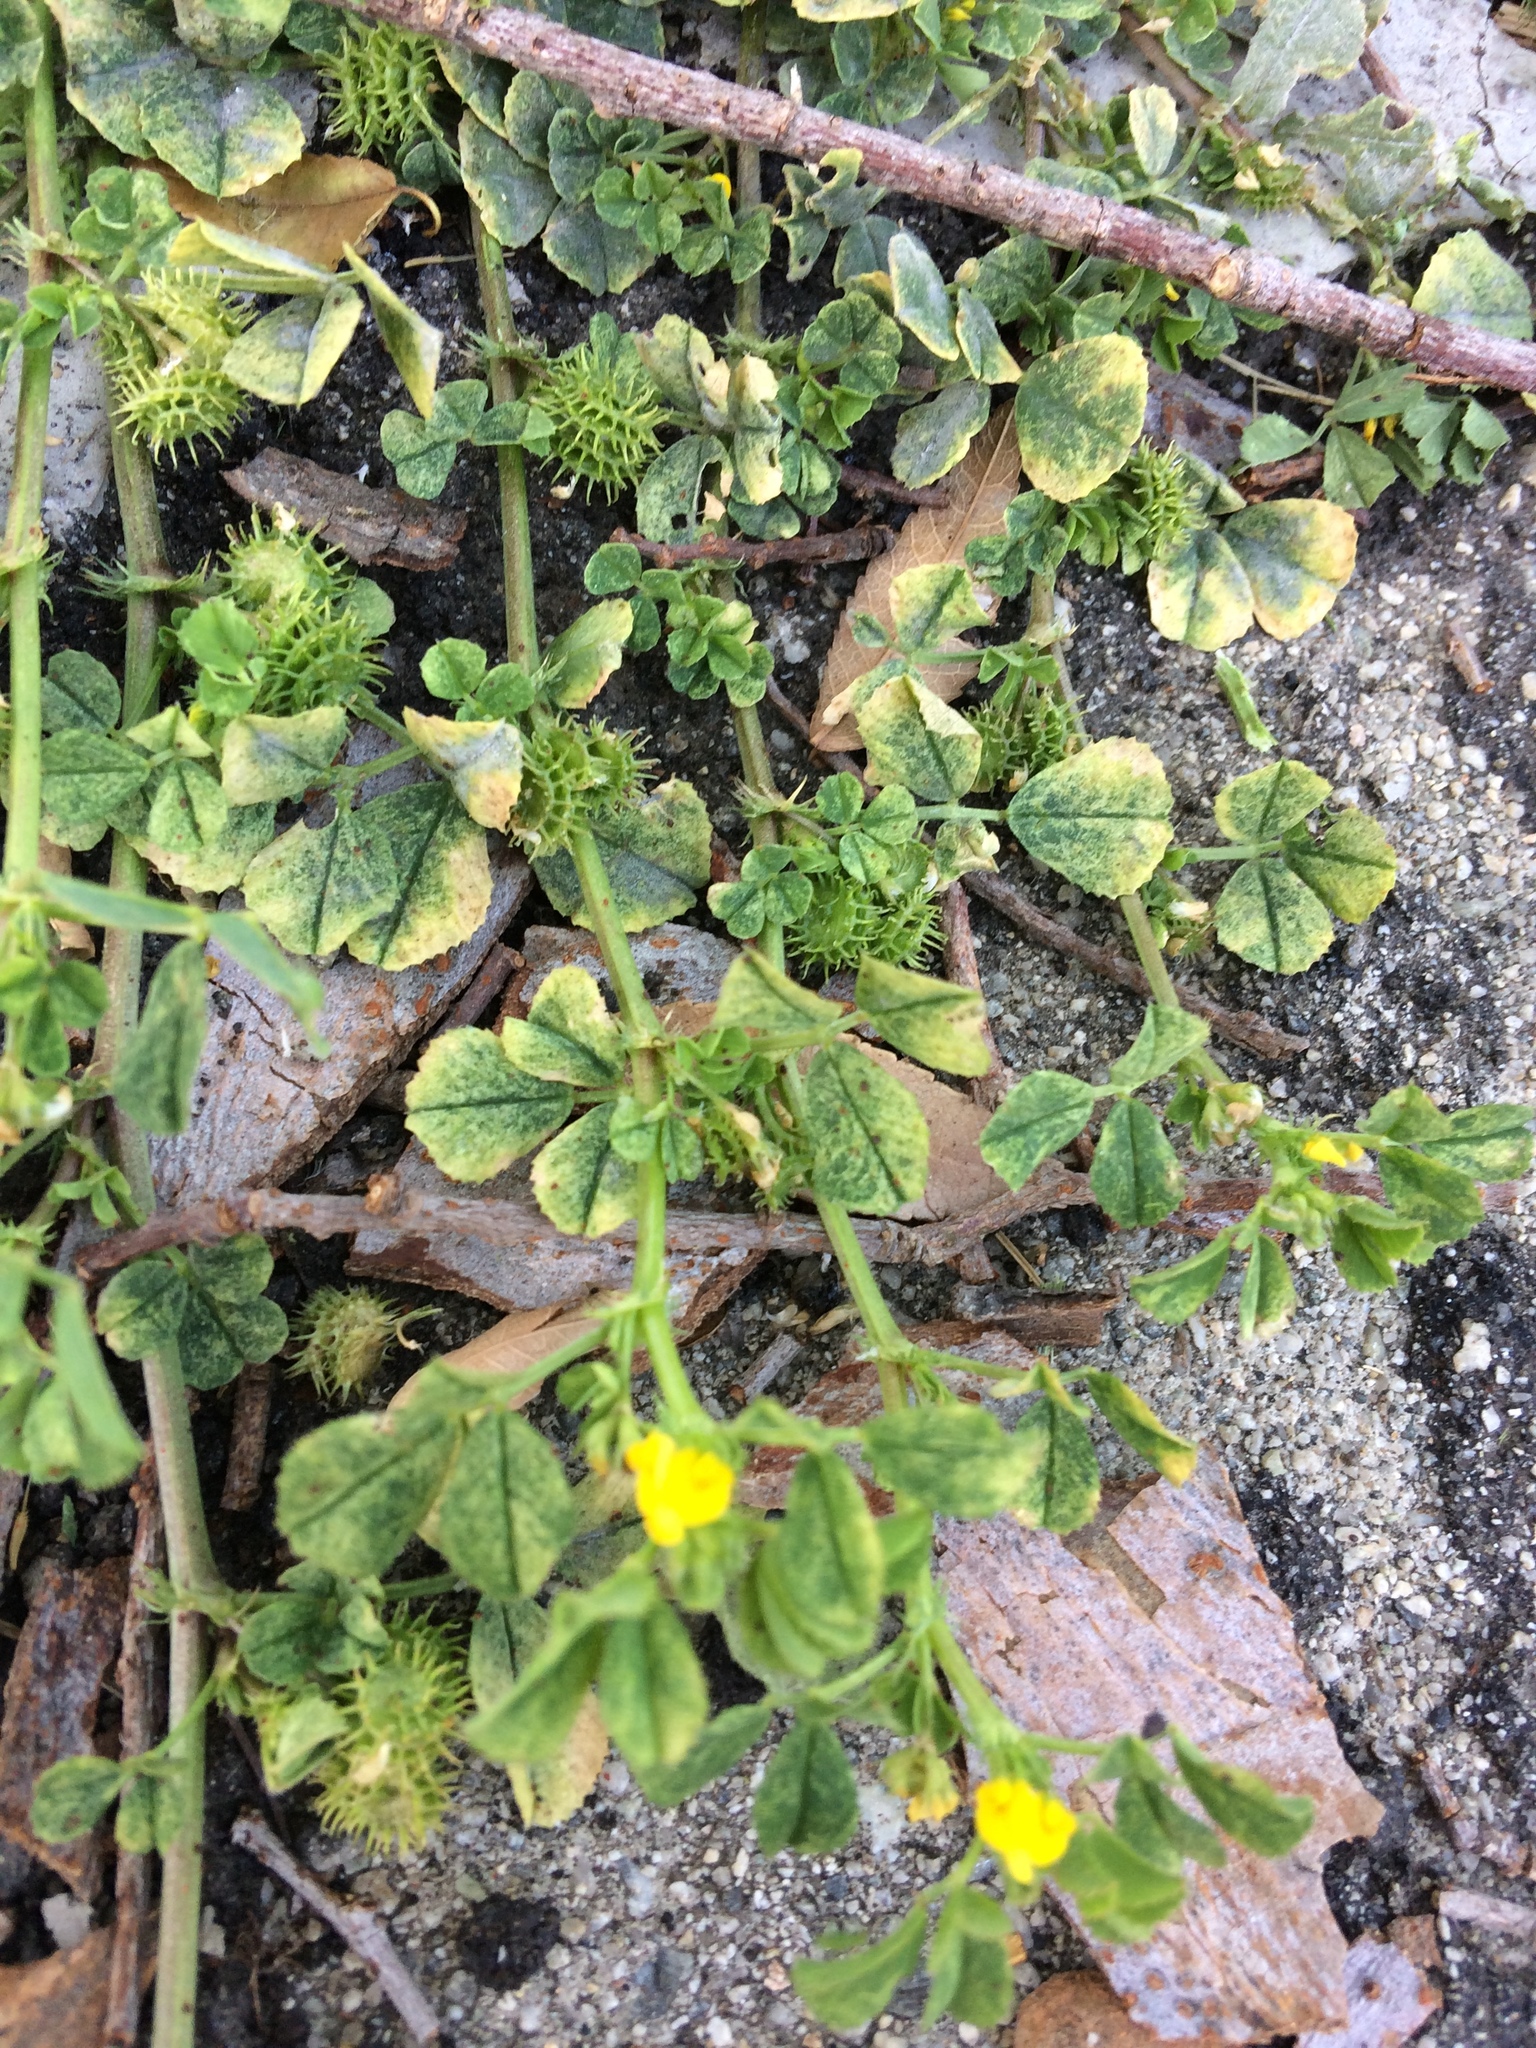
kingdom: Plantae
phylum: Tracheophyta
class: Magnoliopsida
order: Fabales
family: Fabaceae
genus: Medicago
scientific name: Medicago polymorpha
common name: Burclover
